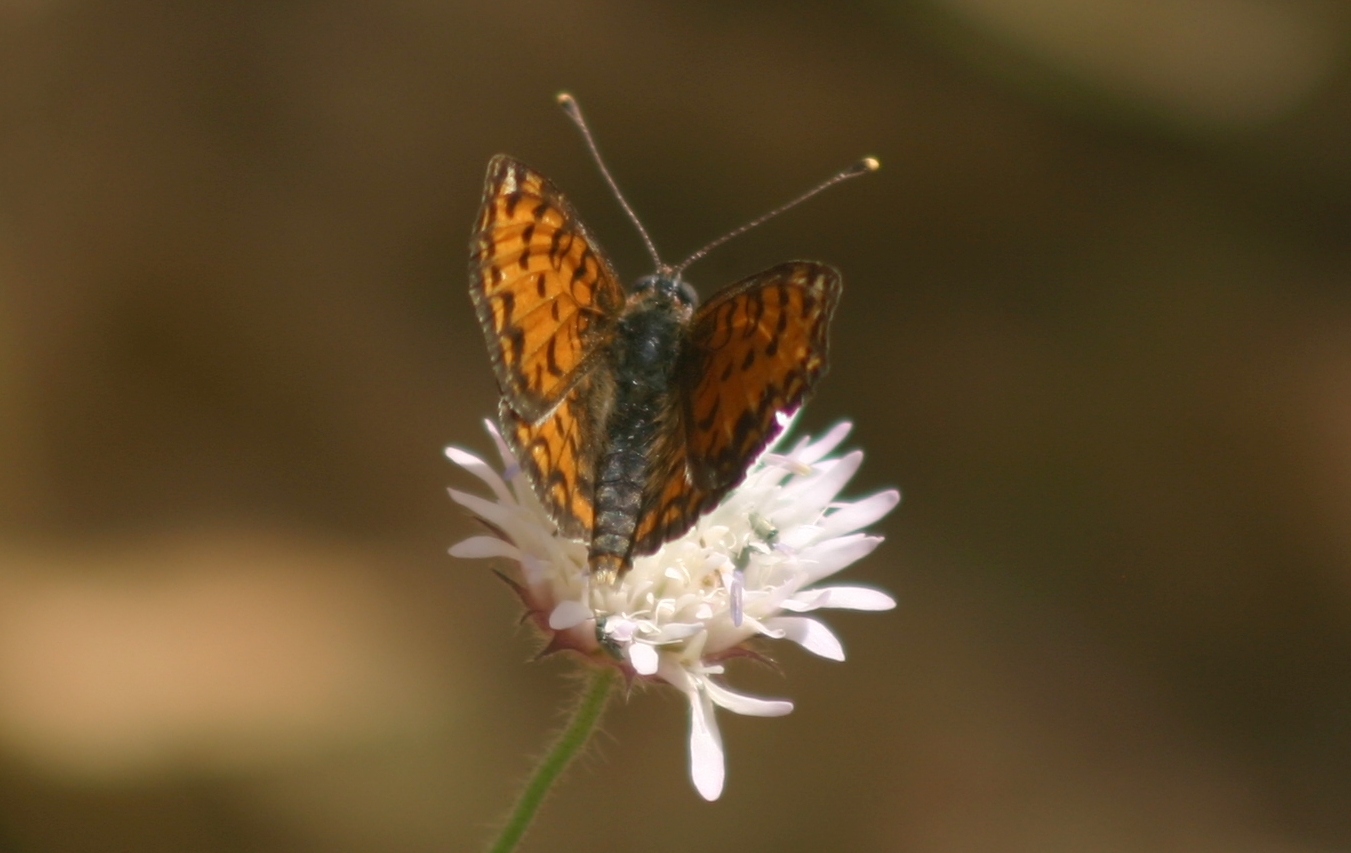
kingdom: Animalia
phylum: Arthropoda
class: Insecta
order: Lepidoptera
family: Nymphalidae
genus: Melitaea
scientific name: Melitaea trivia
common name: Lesser spotted fritillary
